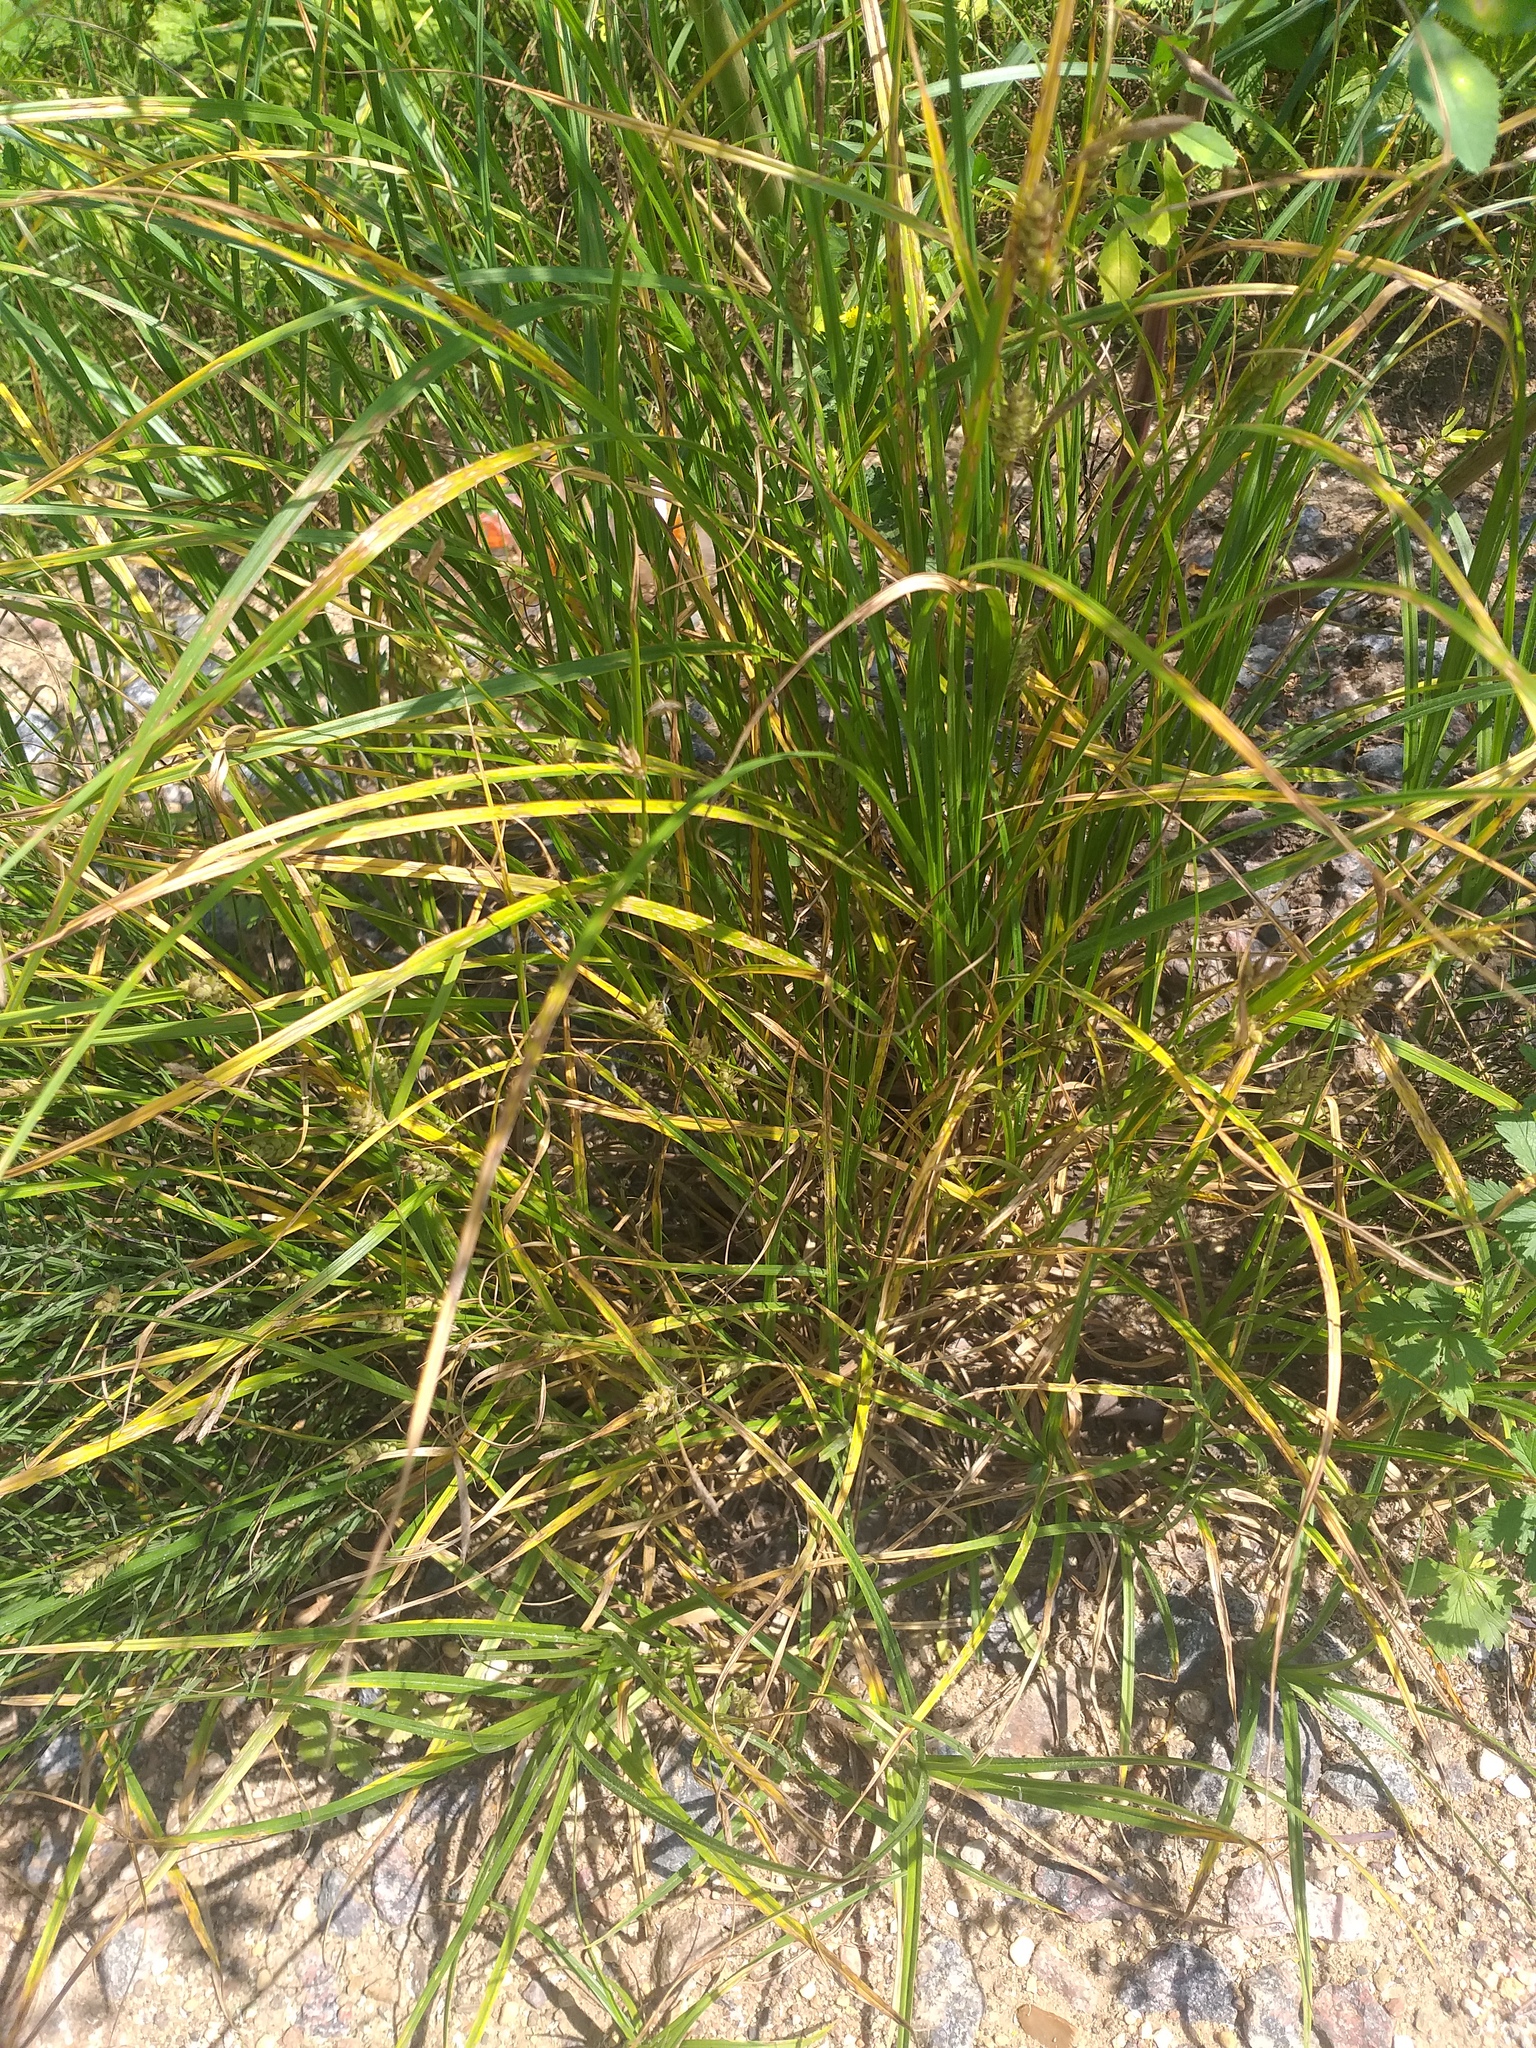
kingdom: Plantae
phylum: Tracheophyta
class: Liliopsida
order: Poales
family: Cyperaceae
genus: Carex
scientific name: Carex hirta
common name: Hairy sedge
